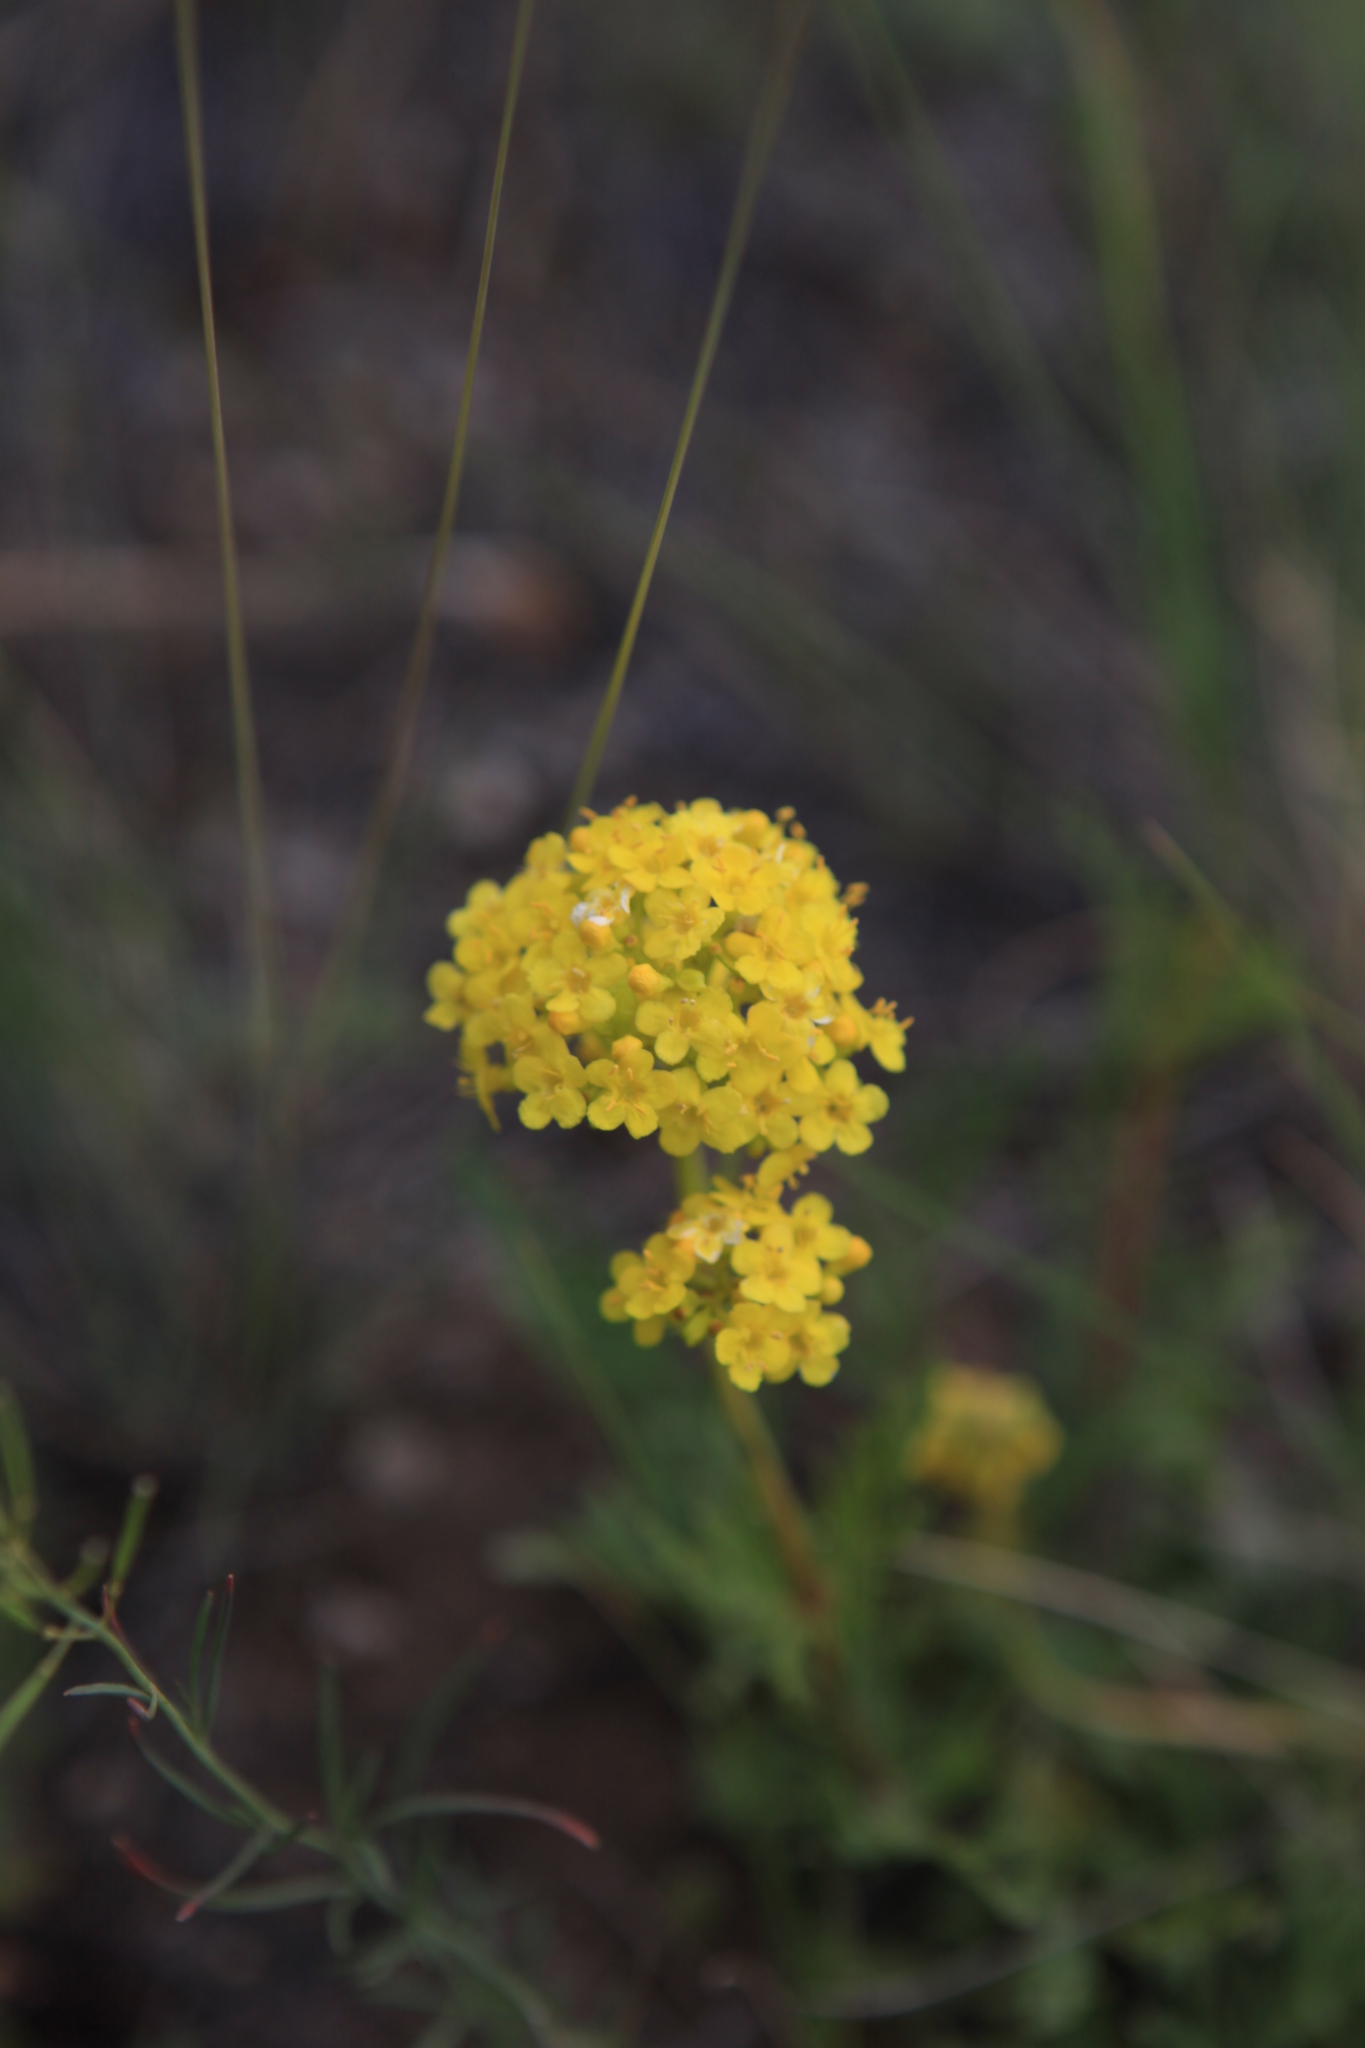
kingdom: Plantae
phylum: Tracheophyta
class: Magnoliopsida
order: Dipsacales
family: Caprifoliaceae
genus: Patrinia
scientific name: Patrinia intermedia
